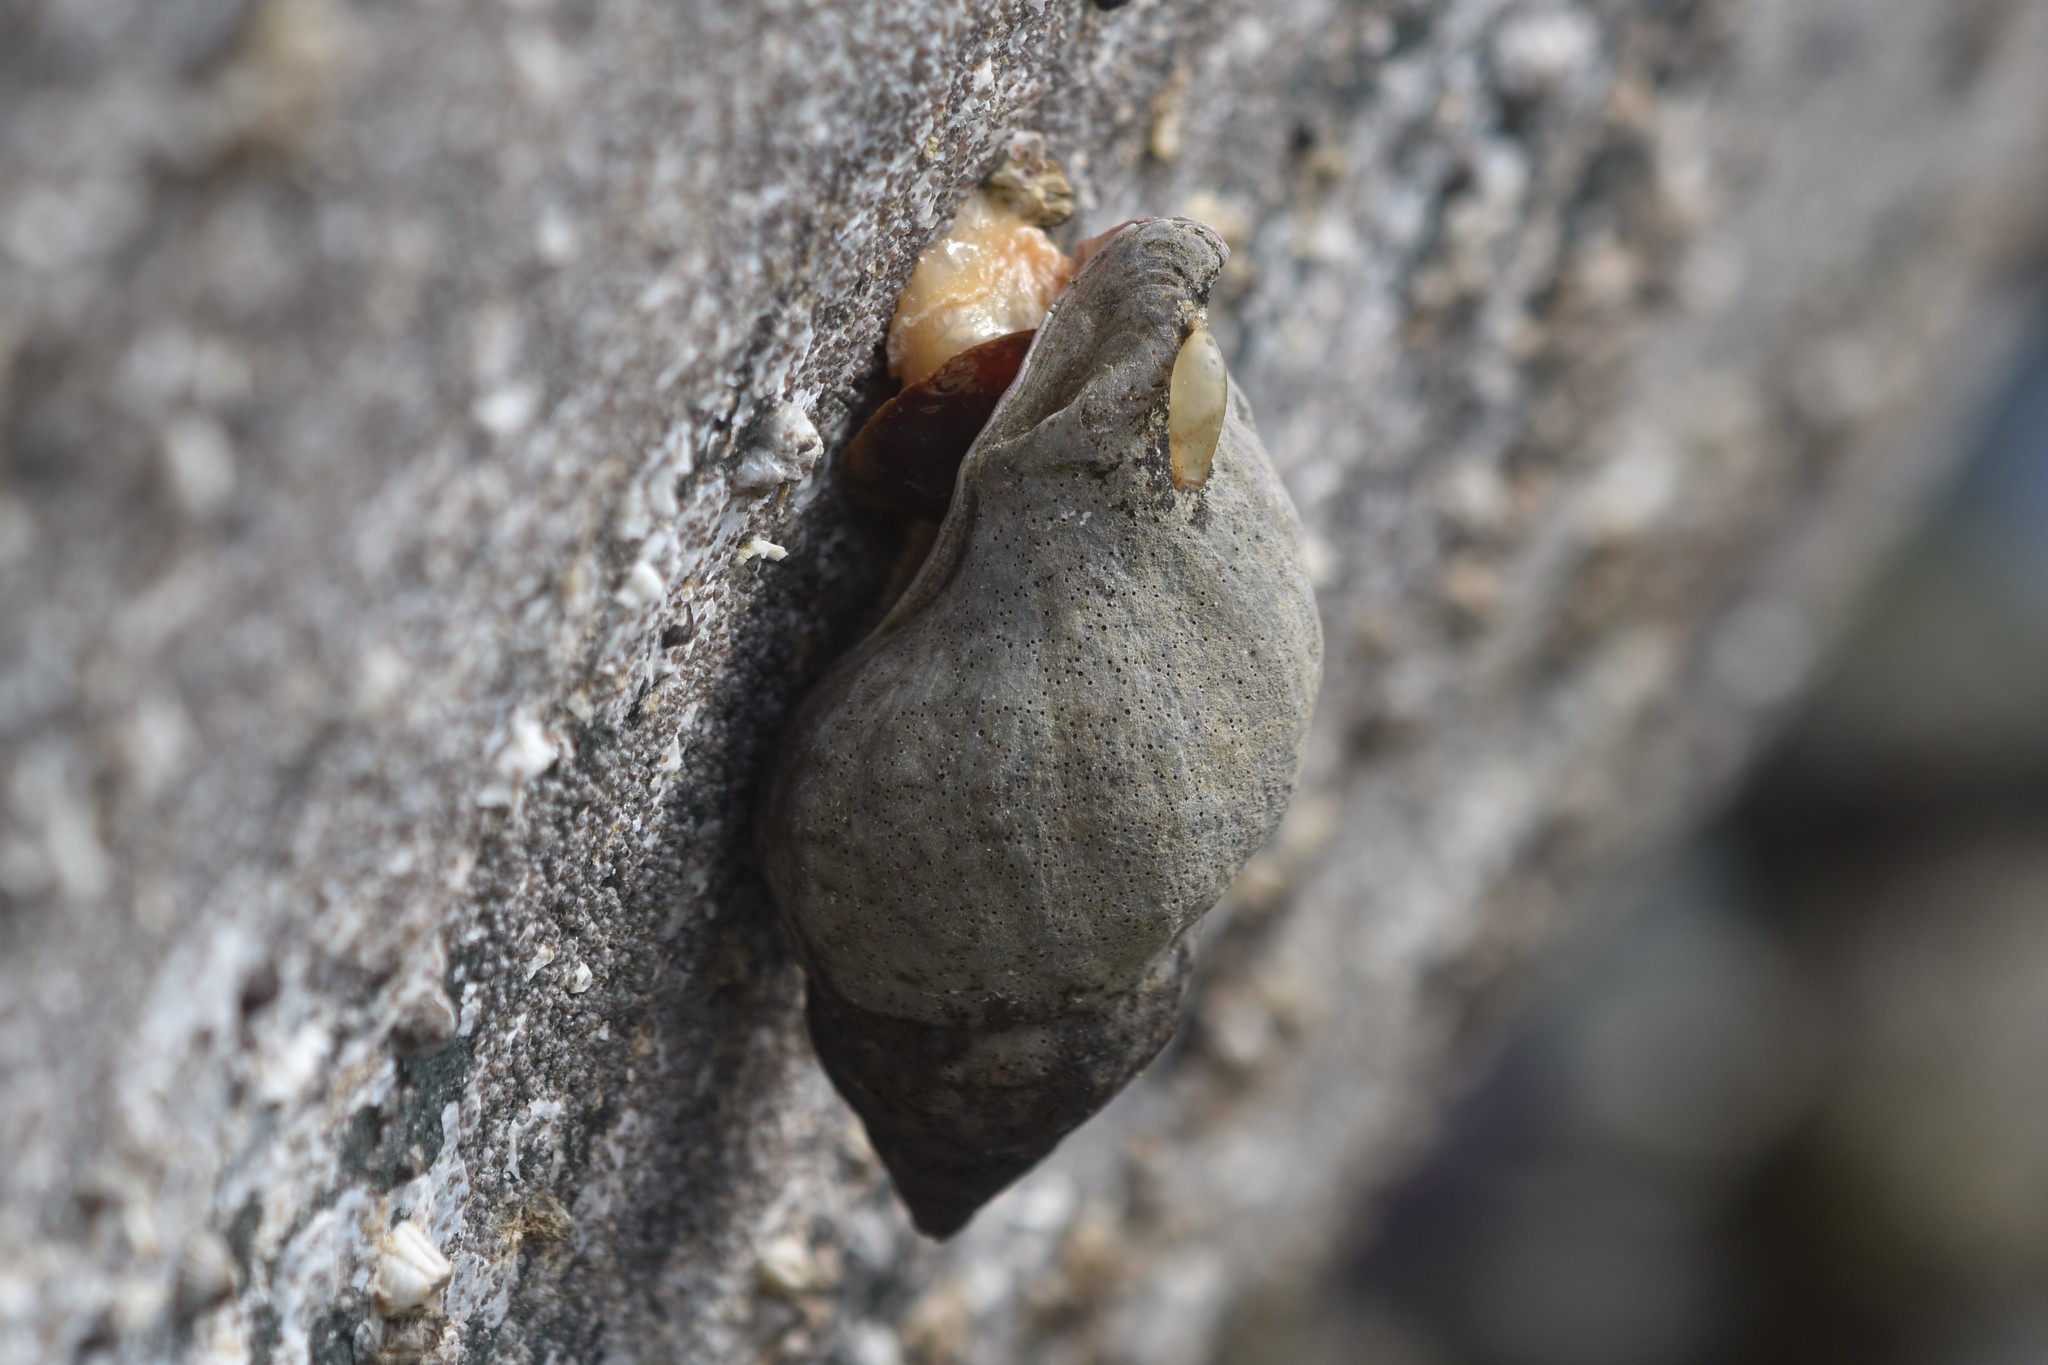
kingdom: Animalia
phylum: Mollusca
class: Gastropoda
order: Neogastropoda
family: Muricidae
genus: Nucella
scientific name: Nucella lamellosa
